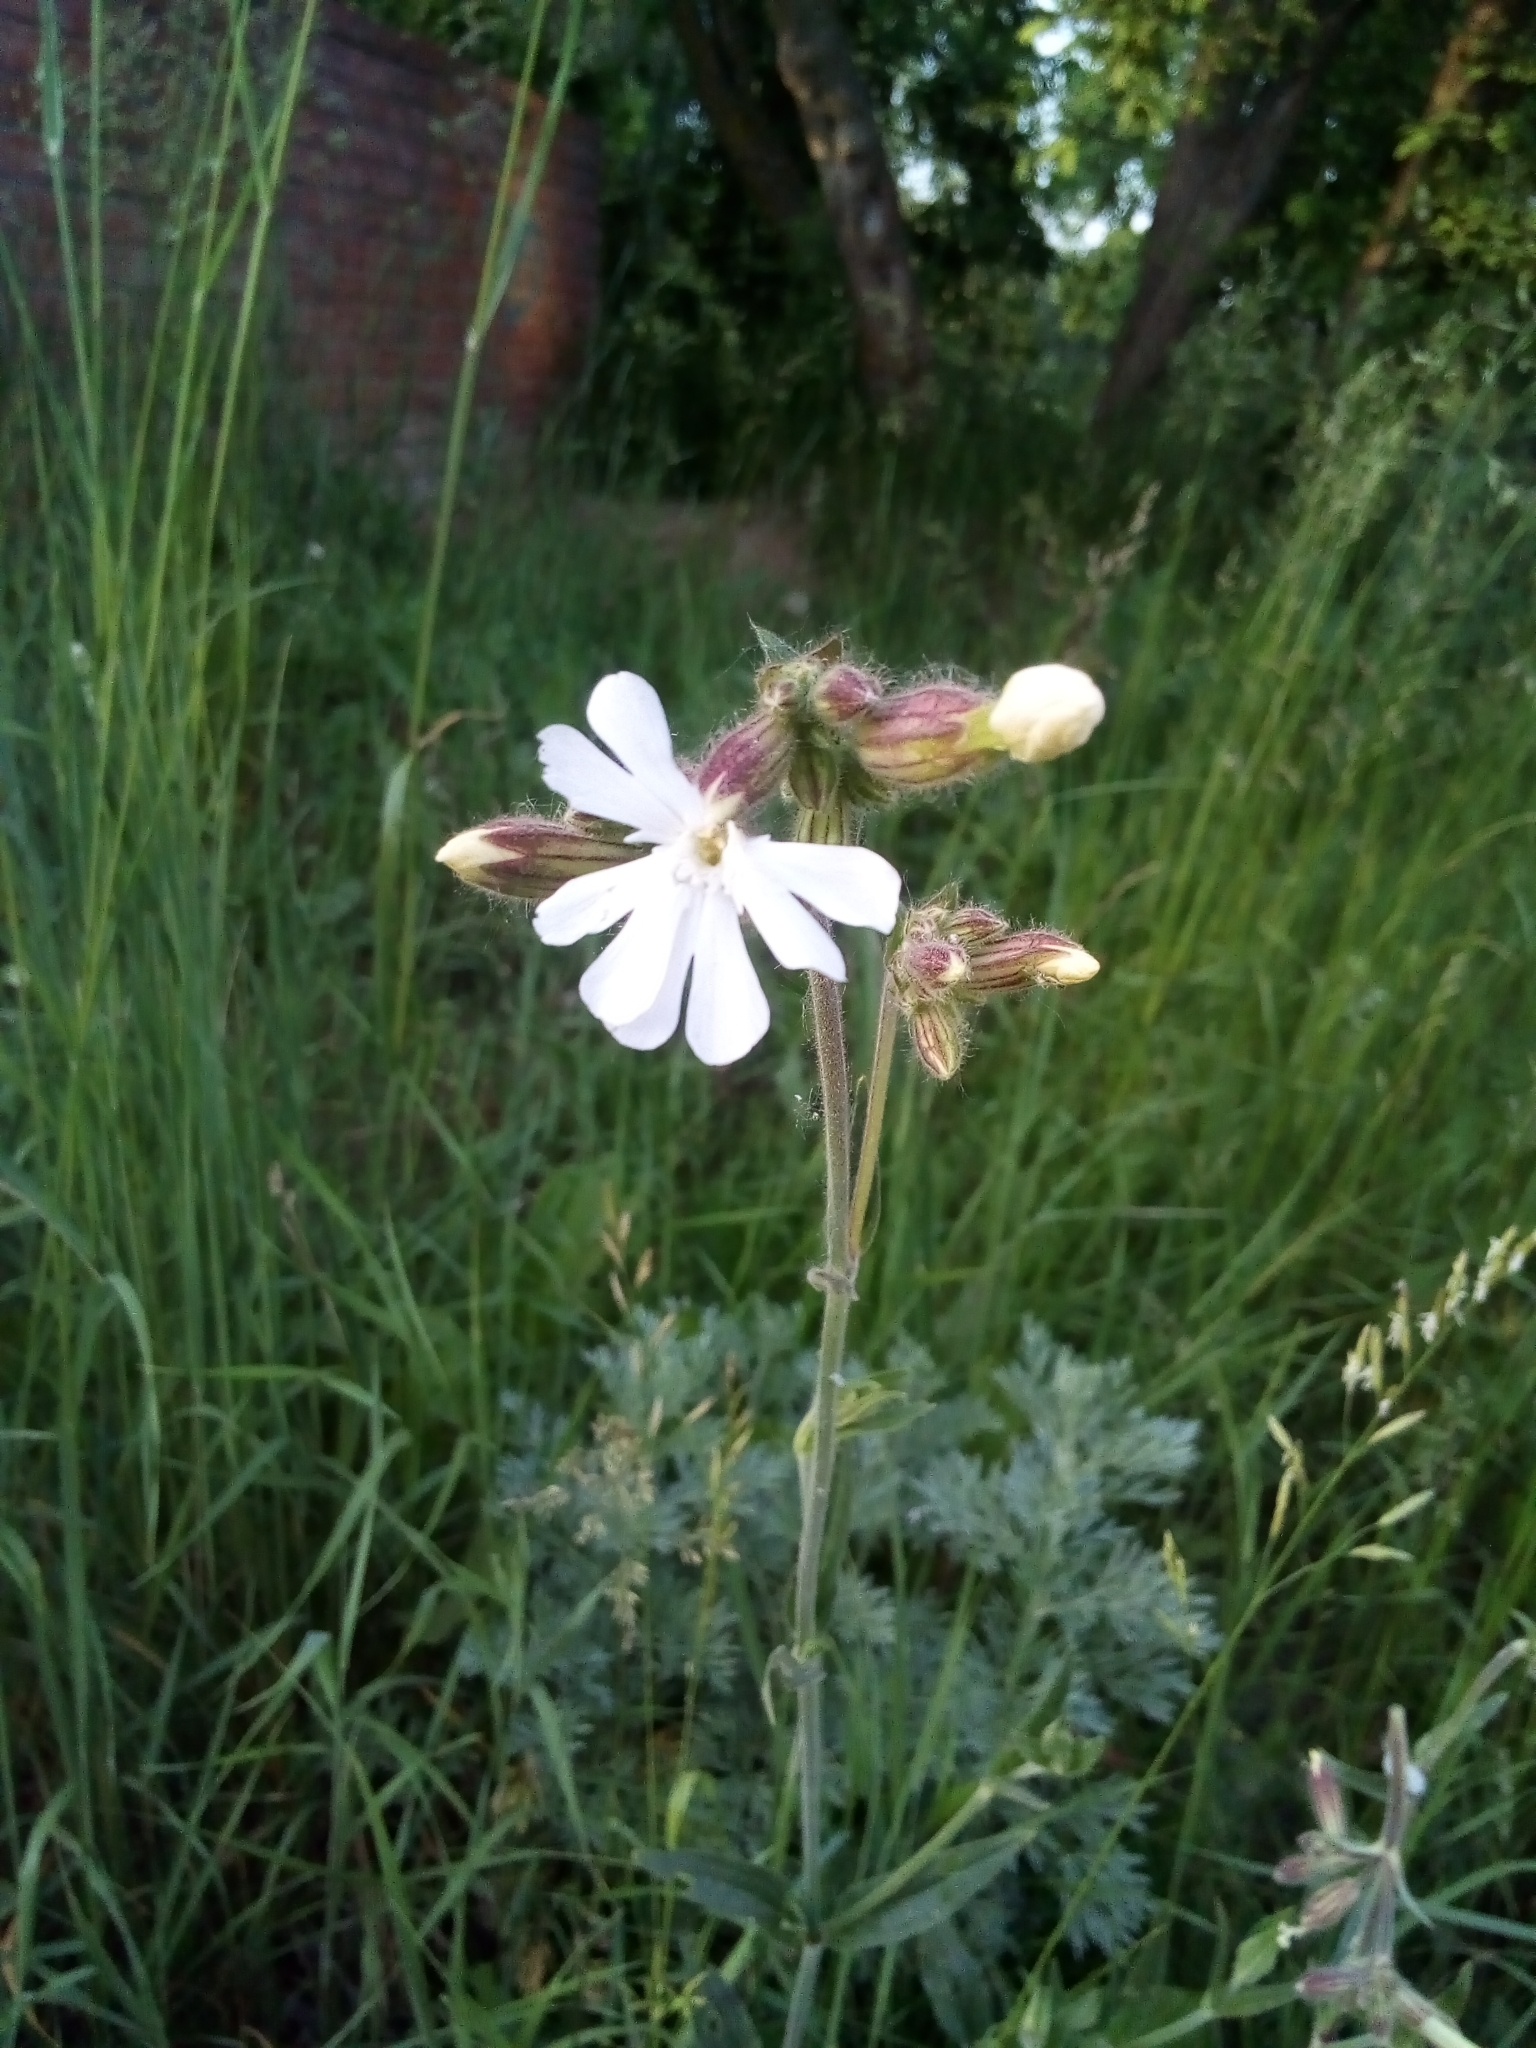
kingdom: Plantae
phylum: Tracheophyta
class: Magnoliopsida
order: Caryophyllales
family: Caryophyllaceae
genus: Silene
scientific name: Silene latifolia
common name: White campion
